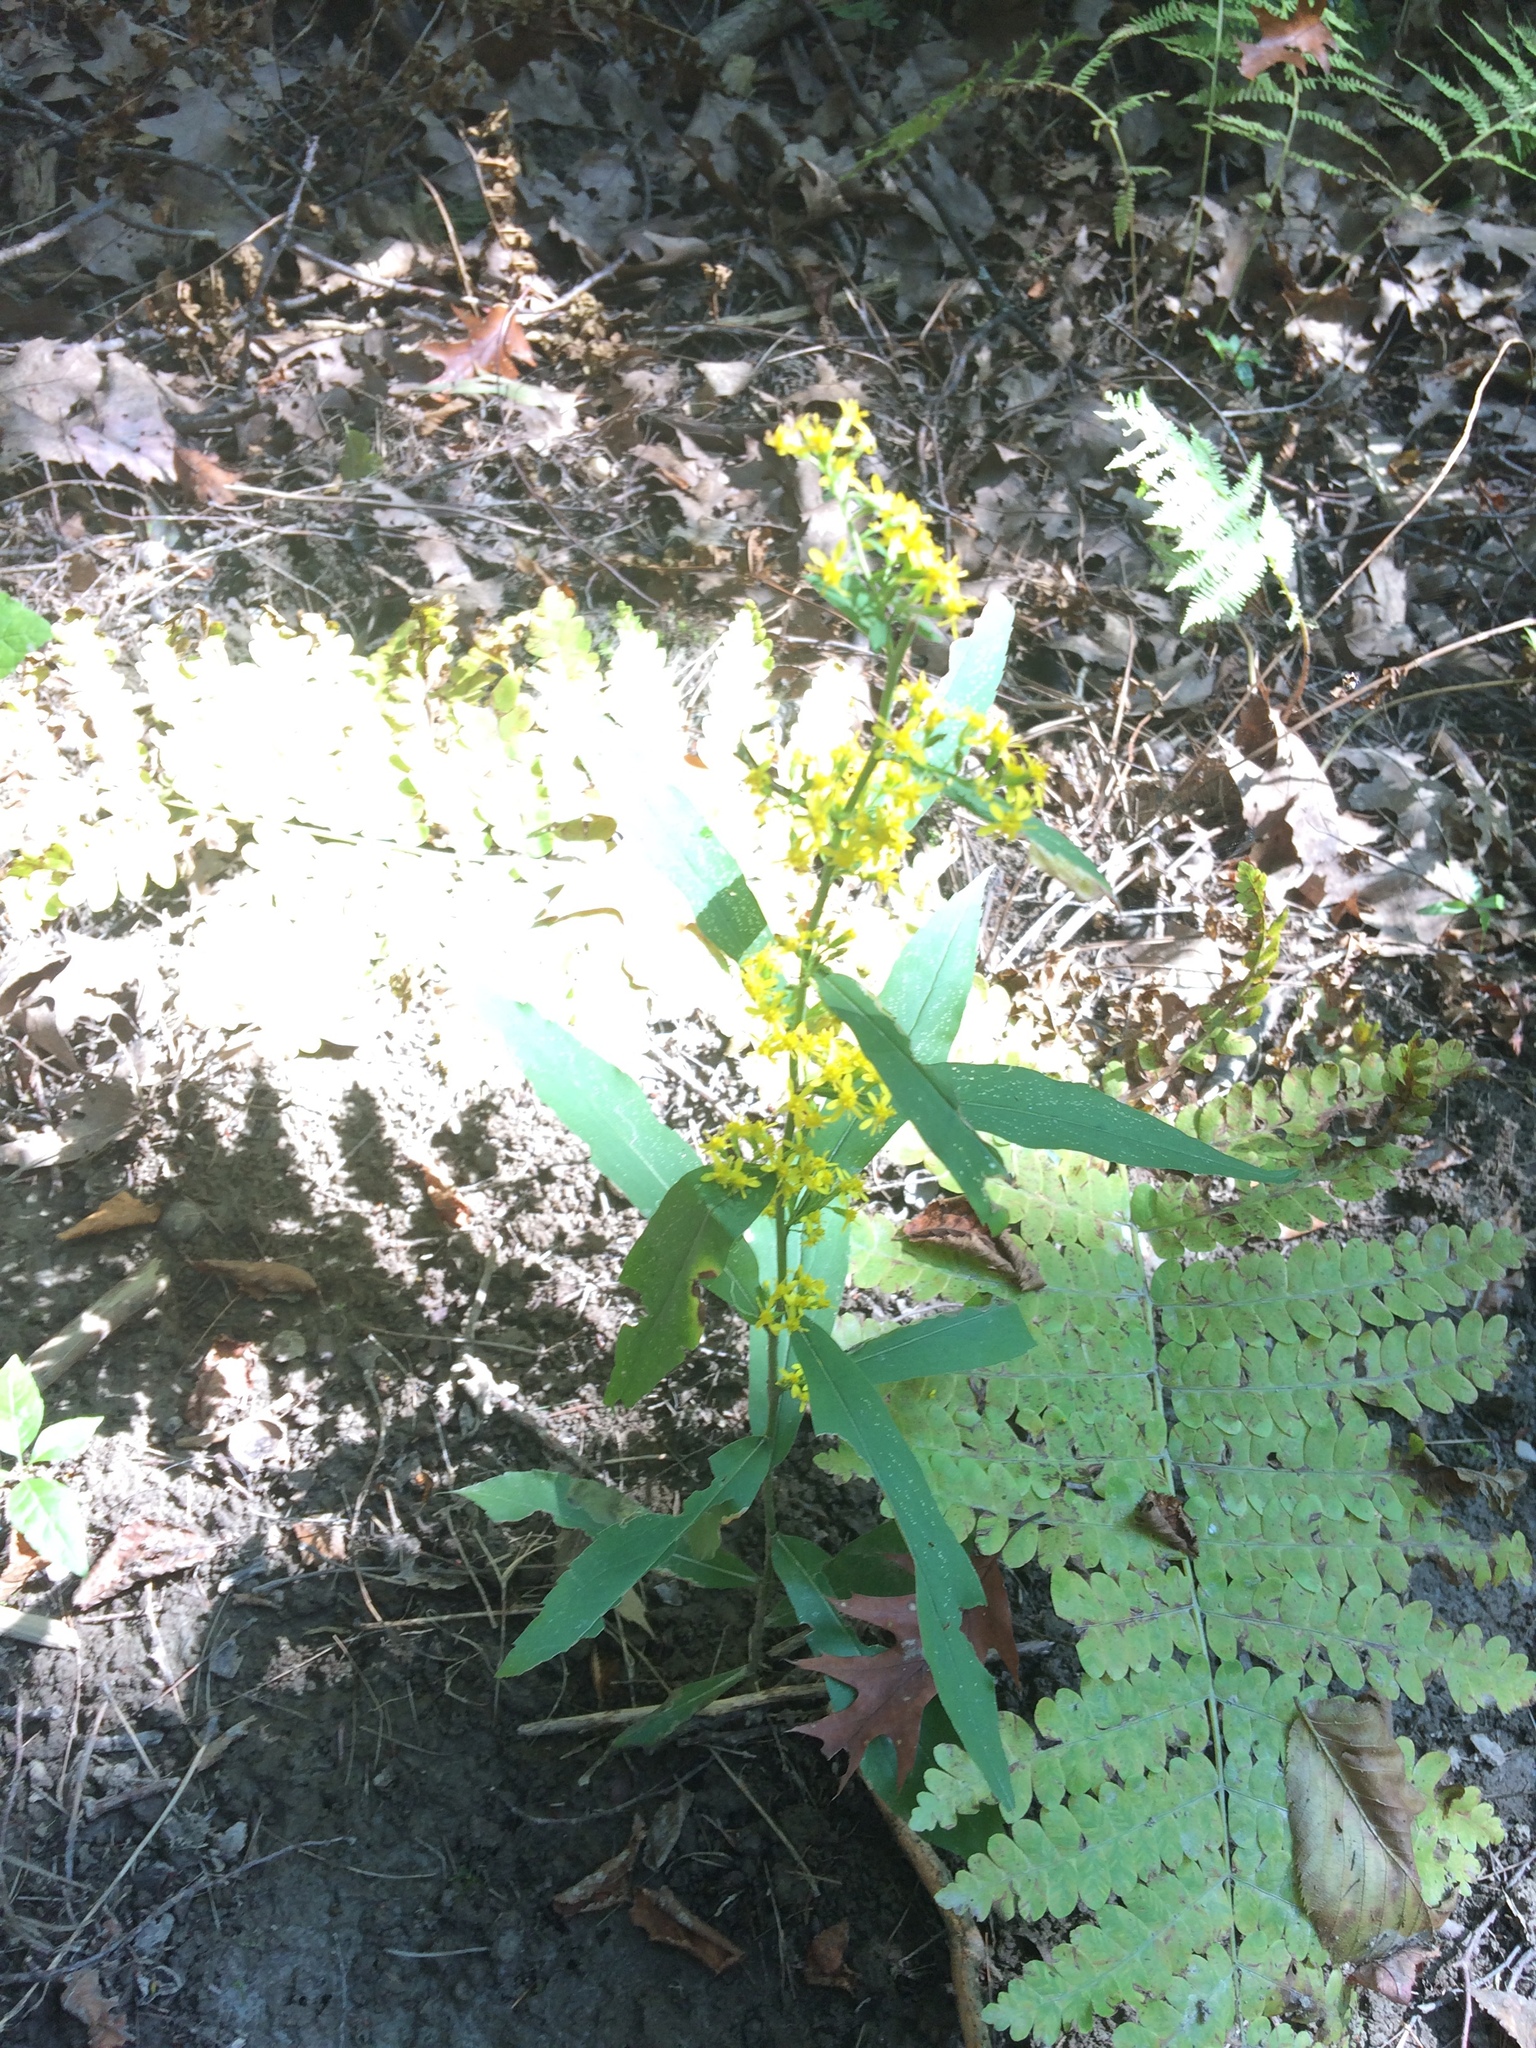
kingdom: Plantae
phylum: Tracheophyta
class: Magnoliopsida
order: Asterales
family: Asteraceae
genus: Solidago
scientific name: Solidago caesia
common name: Woodland goldenrod
